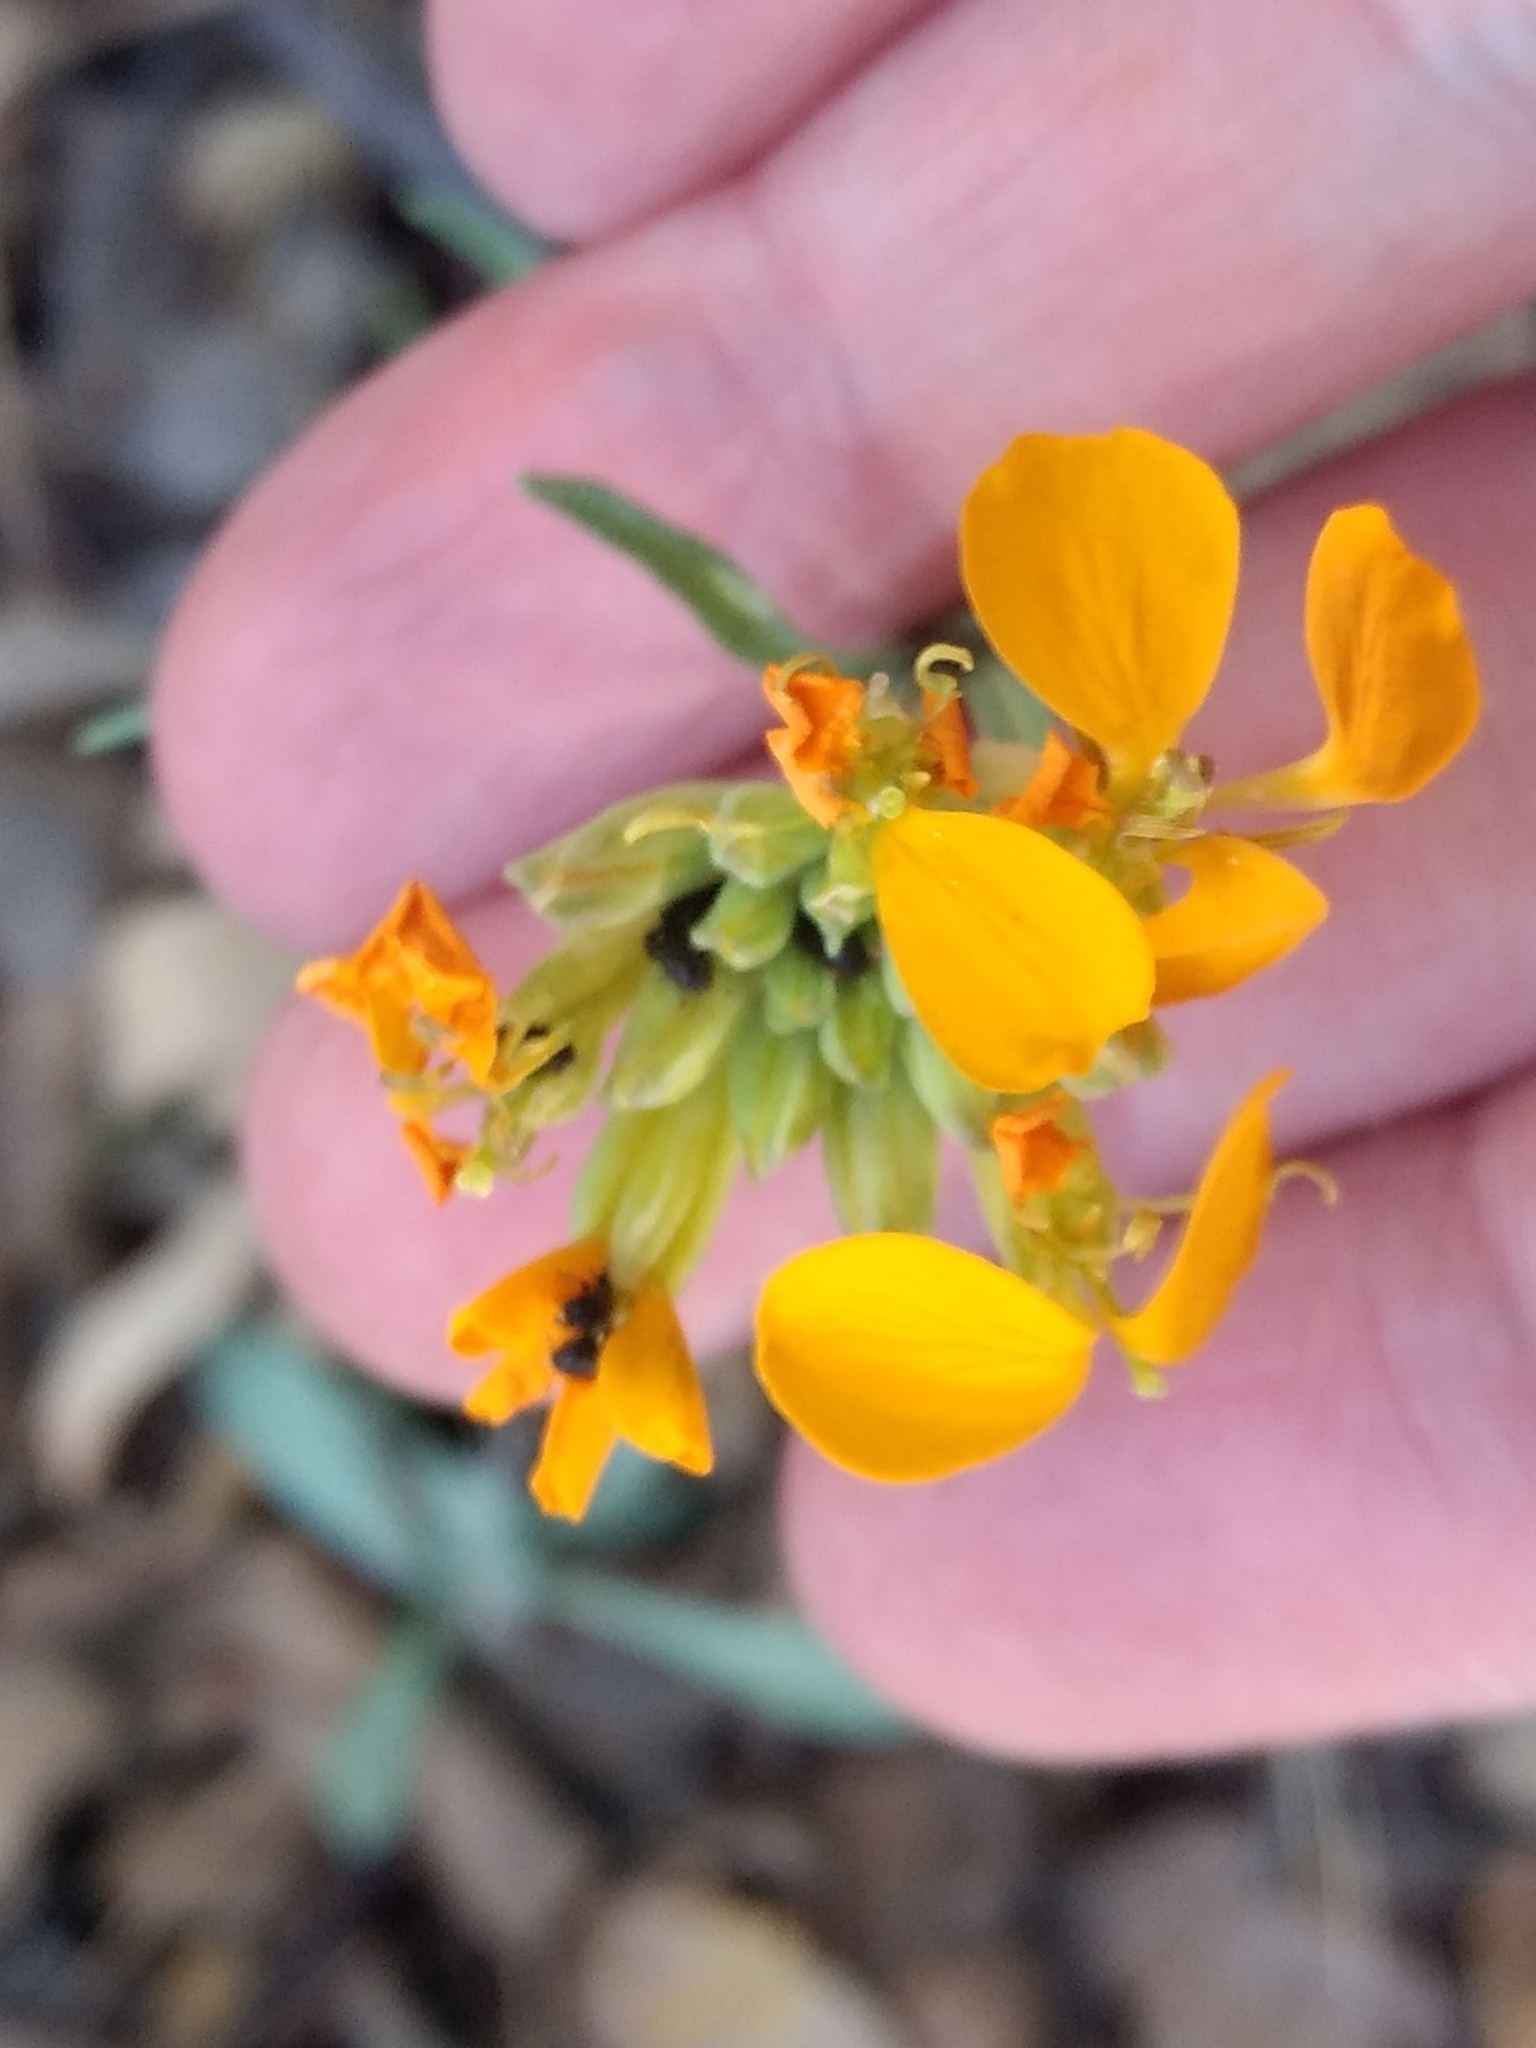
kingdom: Plantae
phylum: Tracheophyta
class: Magnoliopsida
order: Brassicales
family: Brassicaceae
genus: Erysimum
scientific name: Erysimum capitatum
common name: Western wallflower
